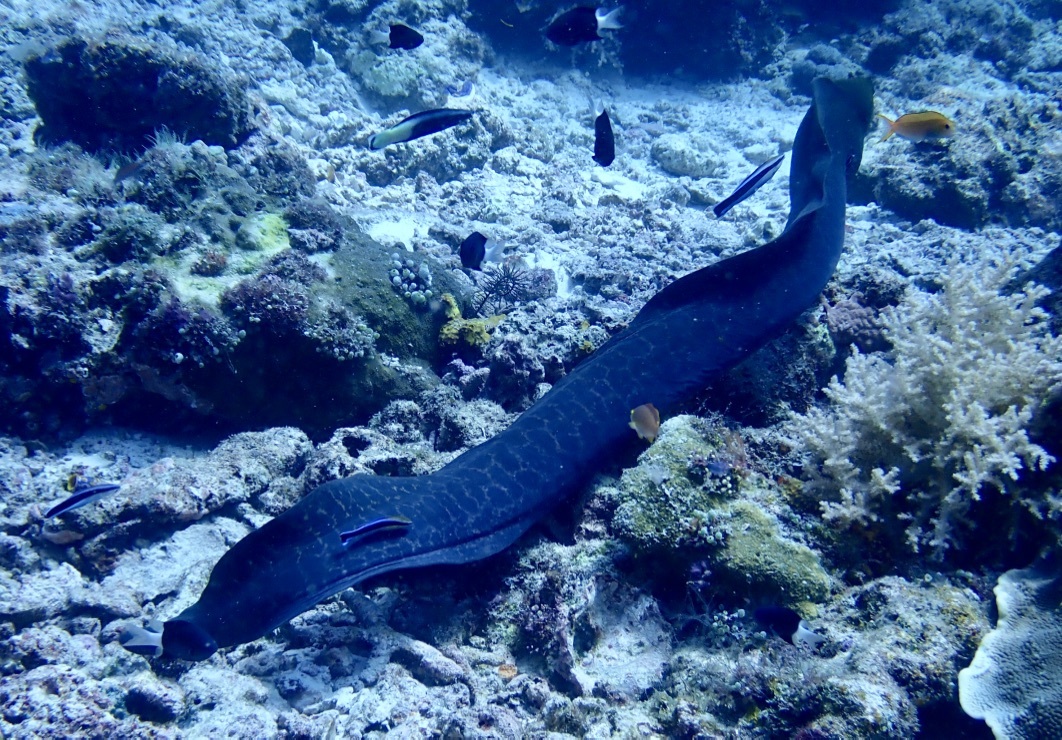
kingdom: Animalia
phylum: Chordata
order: Anguilliformes
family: Muraenidae
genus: Gymnothorax
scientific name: Gymnothorax javanicus
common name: Giant moray
